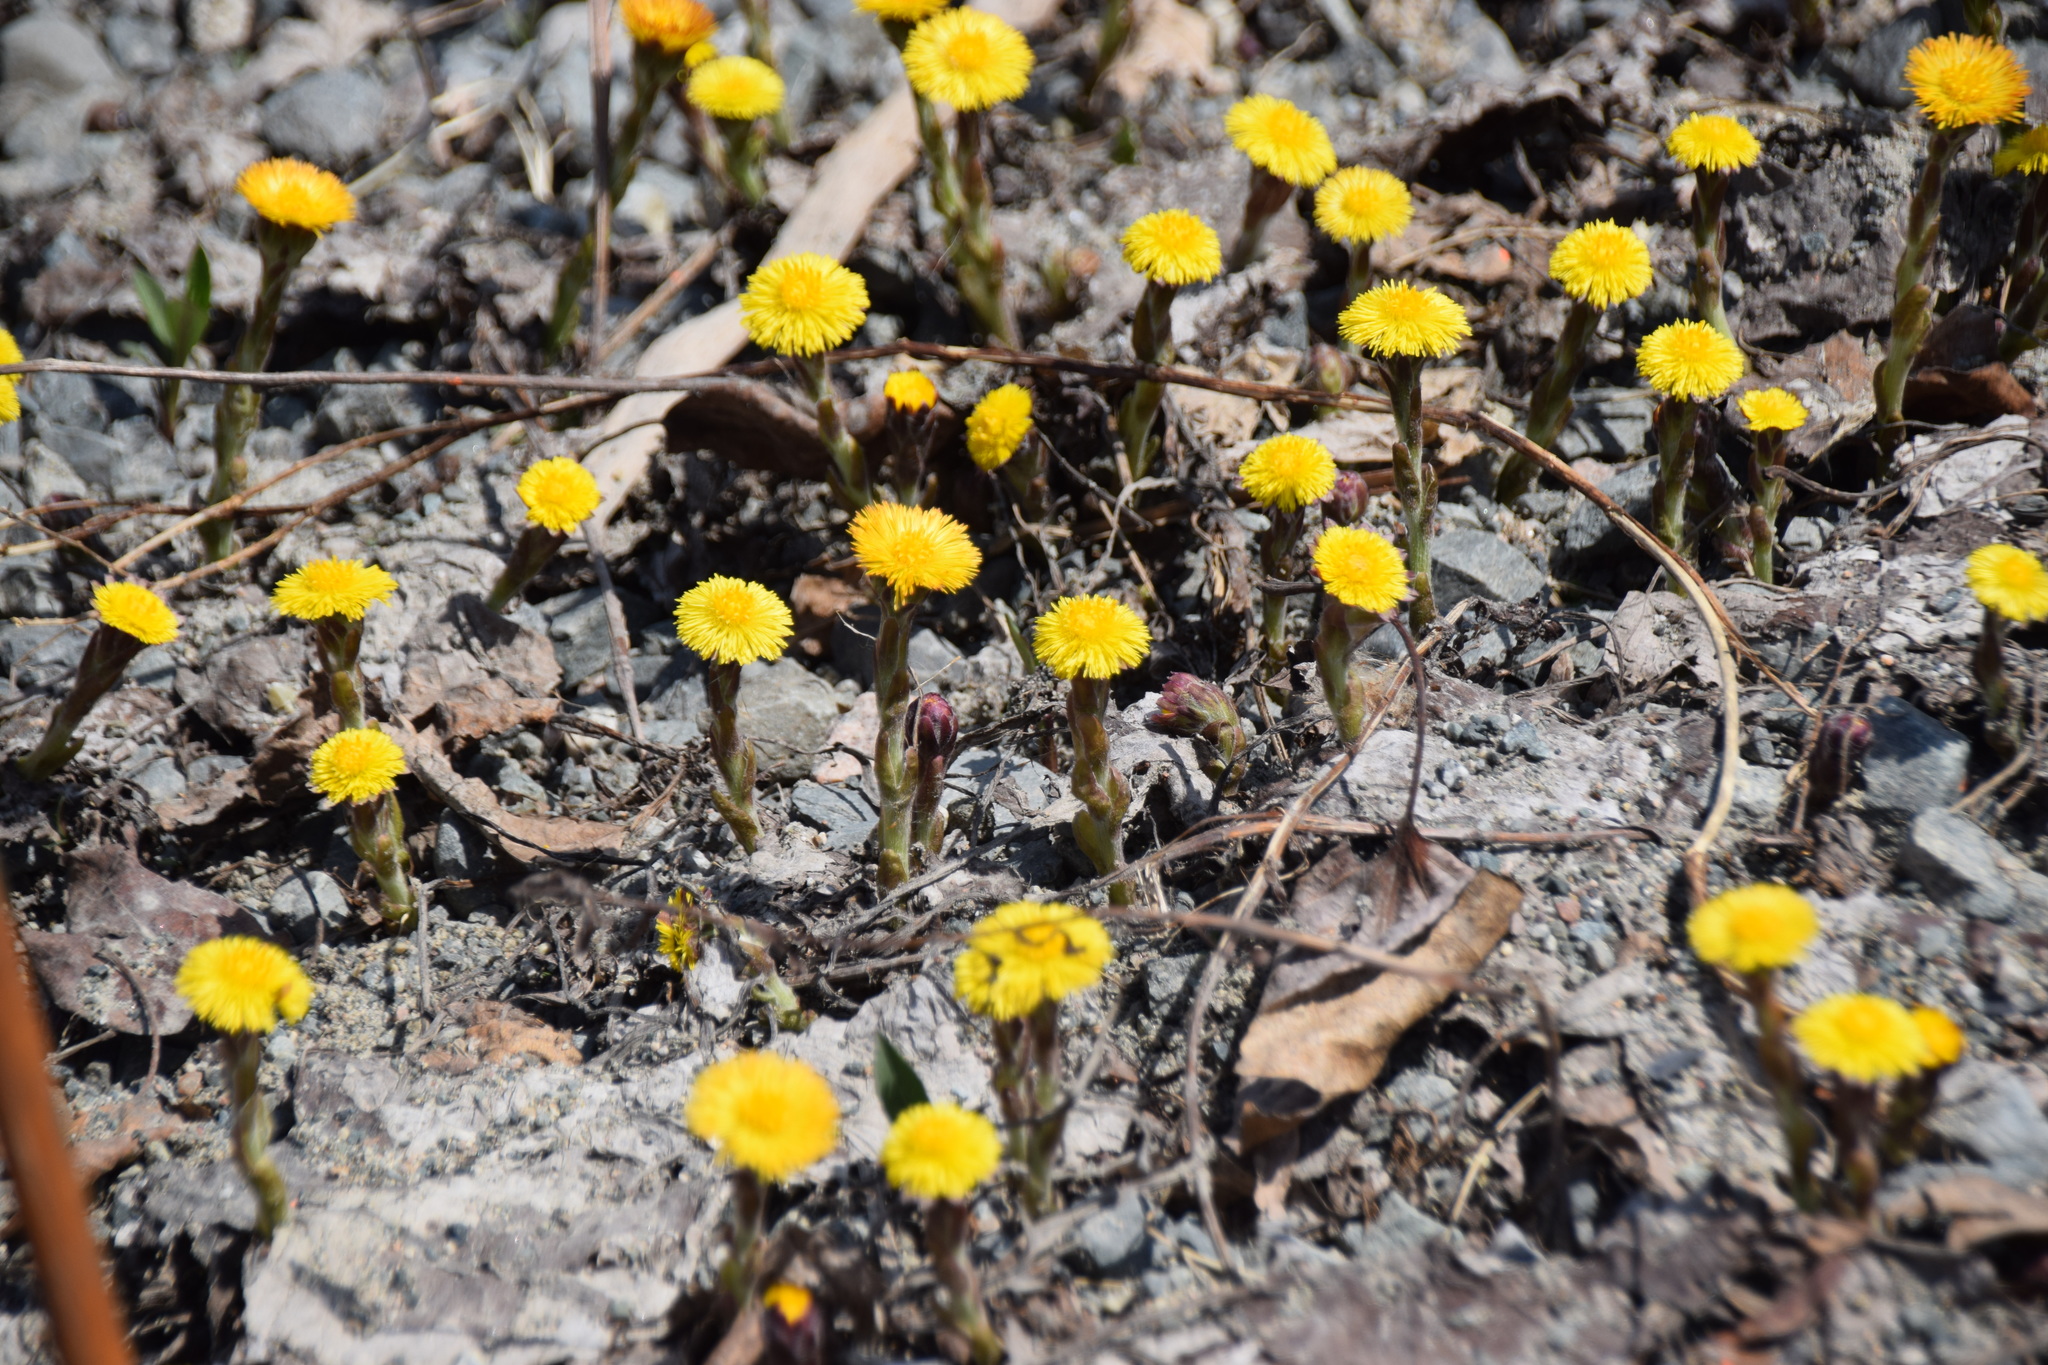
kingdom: Plantae
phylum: Tracheophyta
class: Magnoliopsida
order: Asterales
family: Asteraceae
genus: Tussilago
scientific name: Tussilago farfara
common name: Coltsfoot
